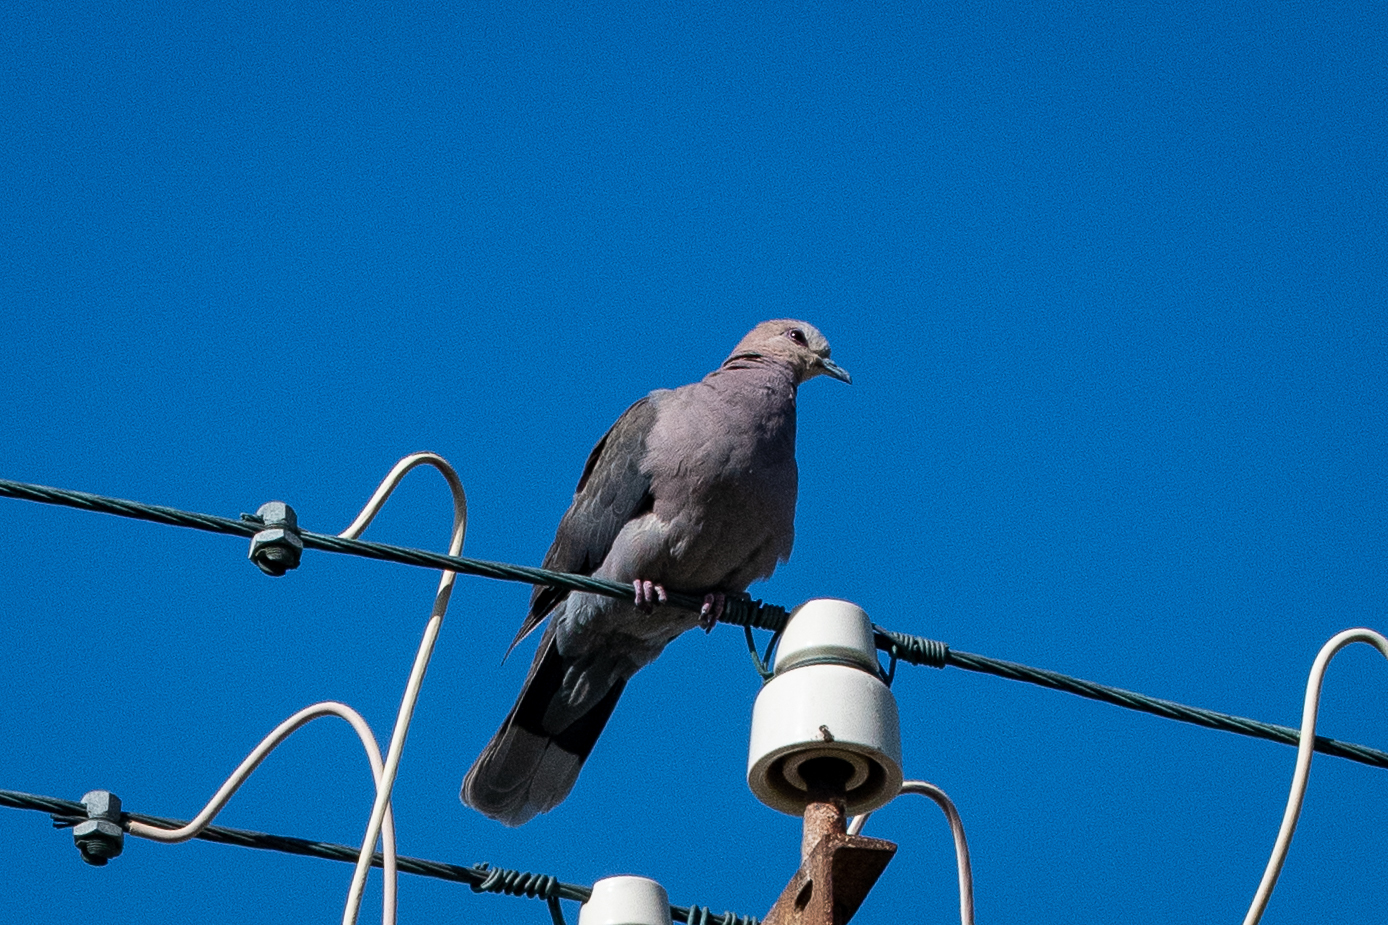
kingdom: Animalia
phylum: Chordata
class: Aves
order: Columbiformes
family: Columbidae
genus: Streptopelia
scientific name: Streptopelia semitorquata
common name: Red-eyed dove
